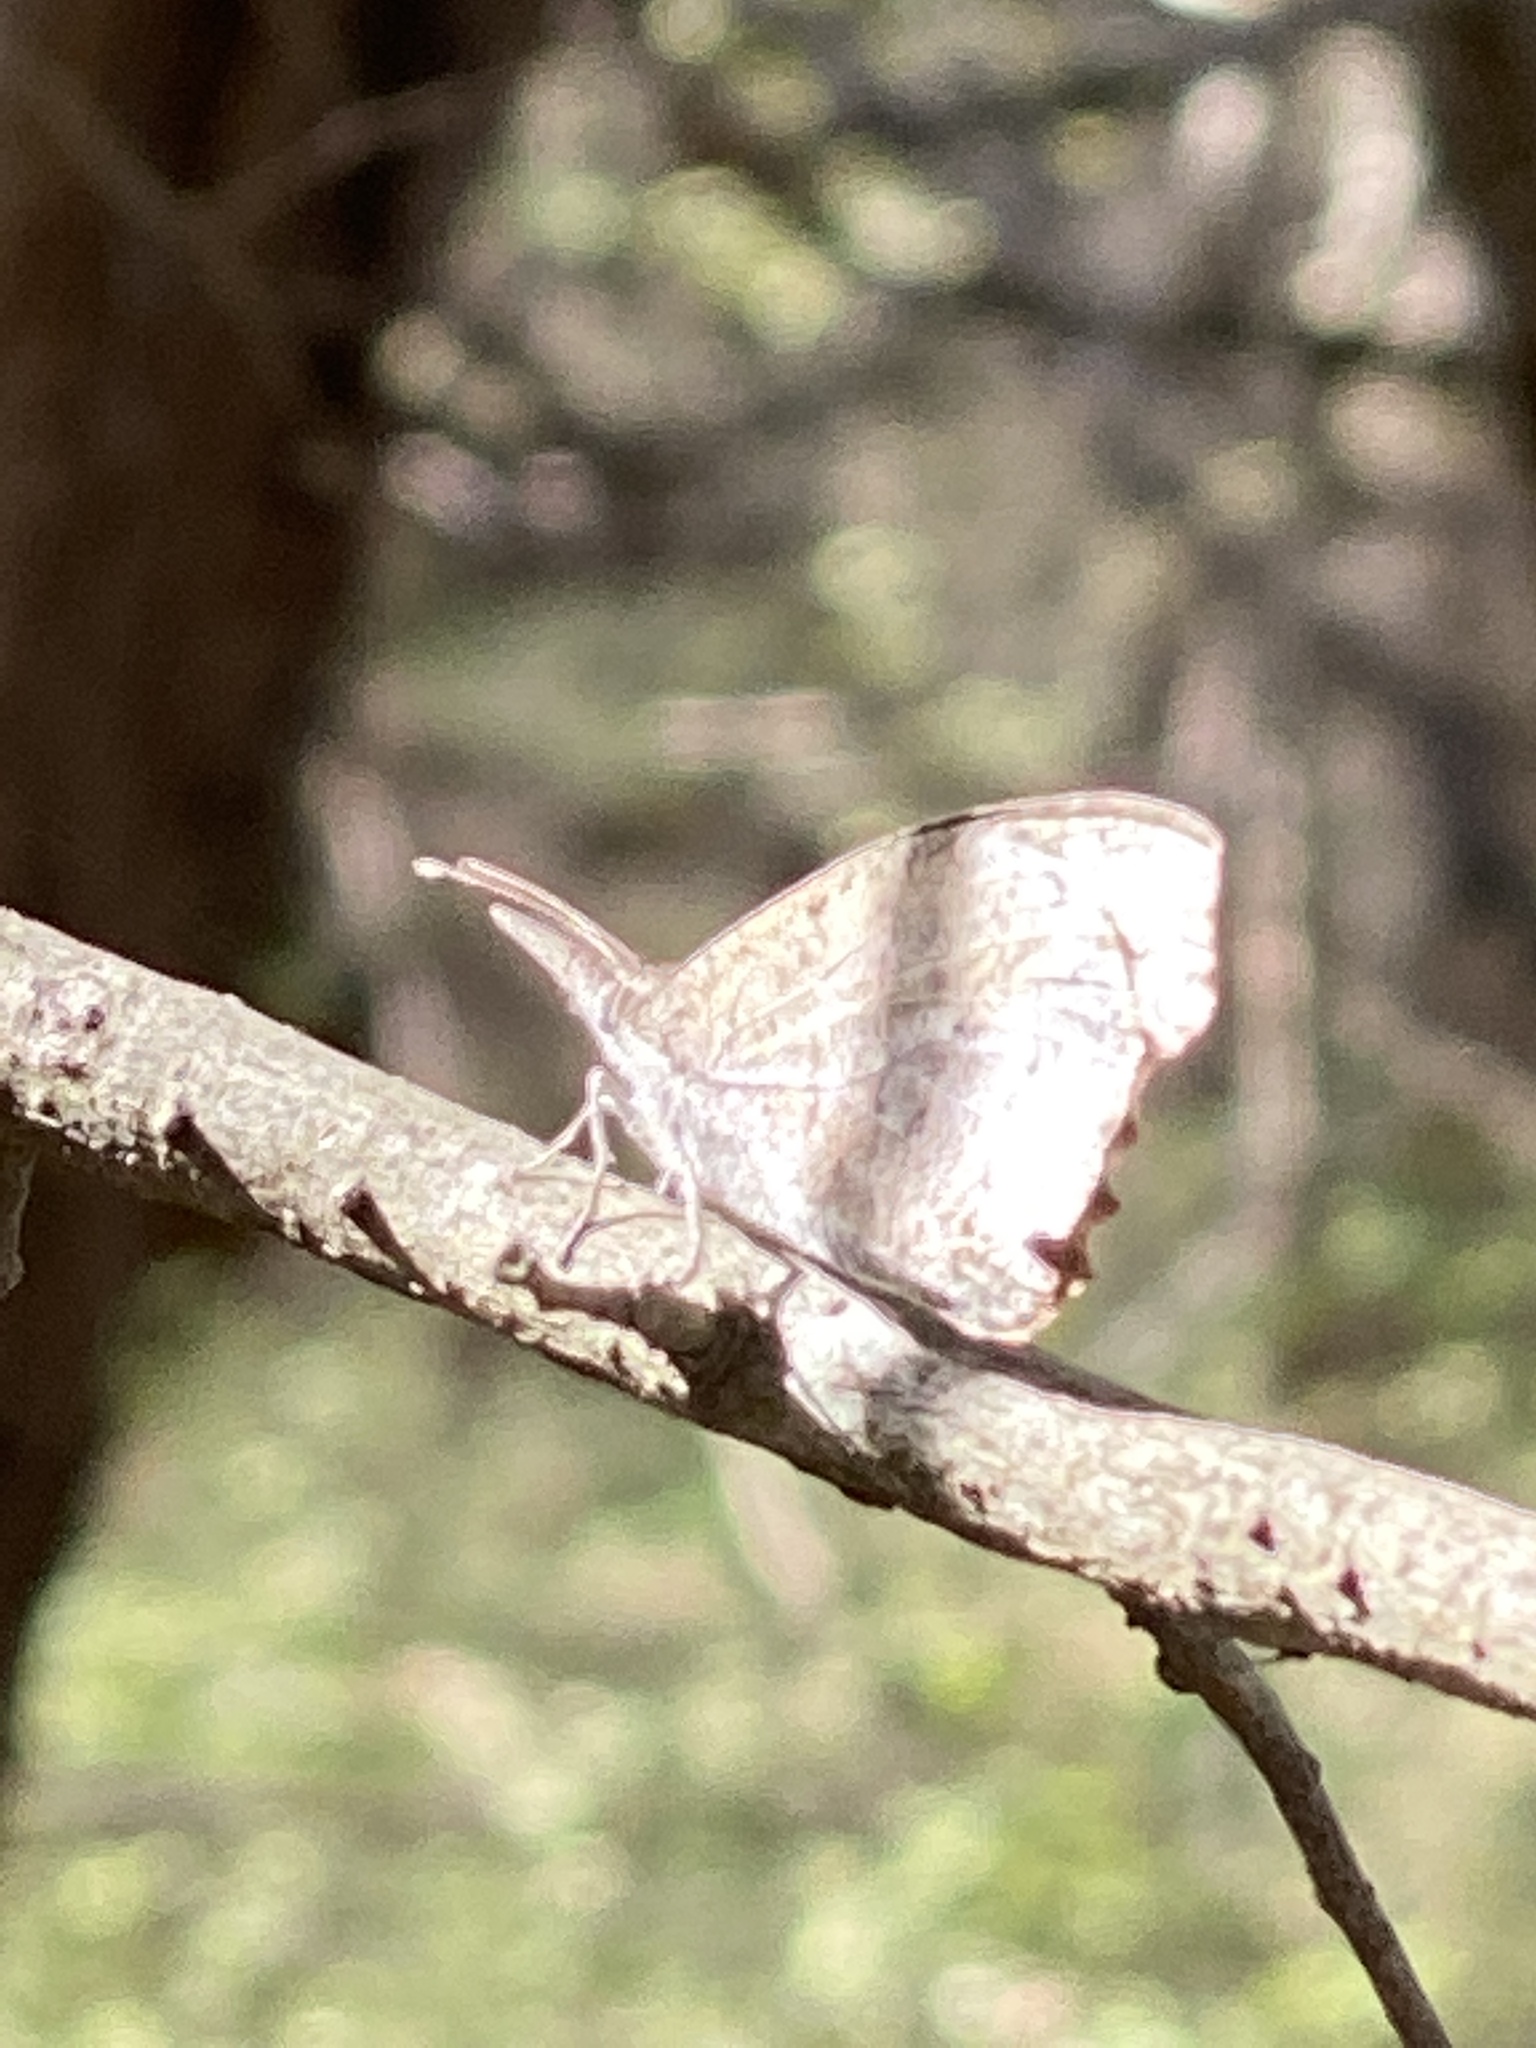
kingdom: Animalia
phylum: Arthropoda
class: Insecta
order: Lepidoptera
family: Nymphalidae
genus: Libytheana
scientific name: Libytheana carinenta
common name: American snout
